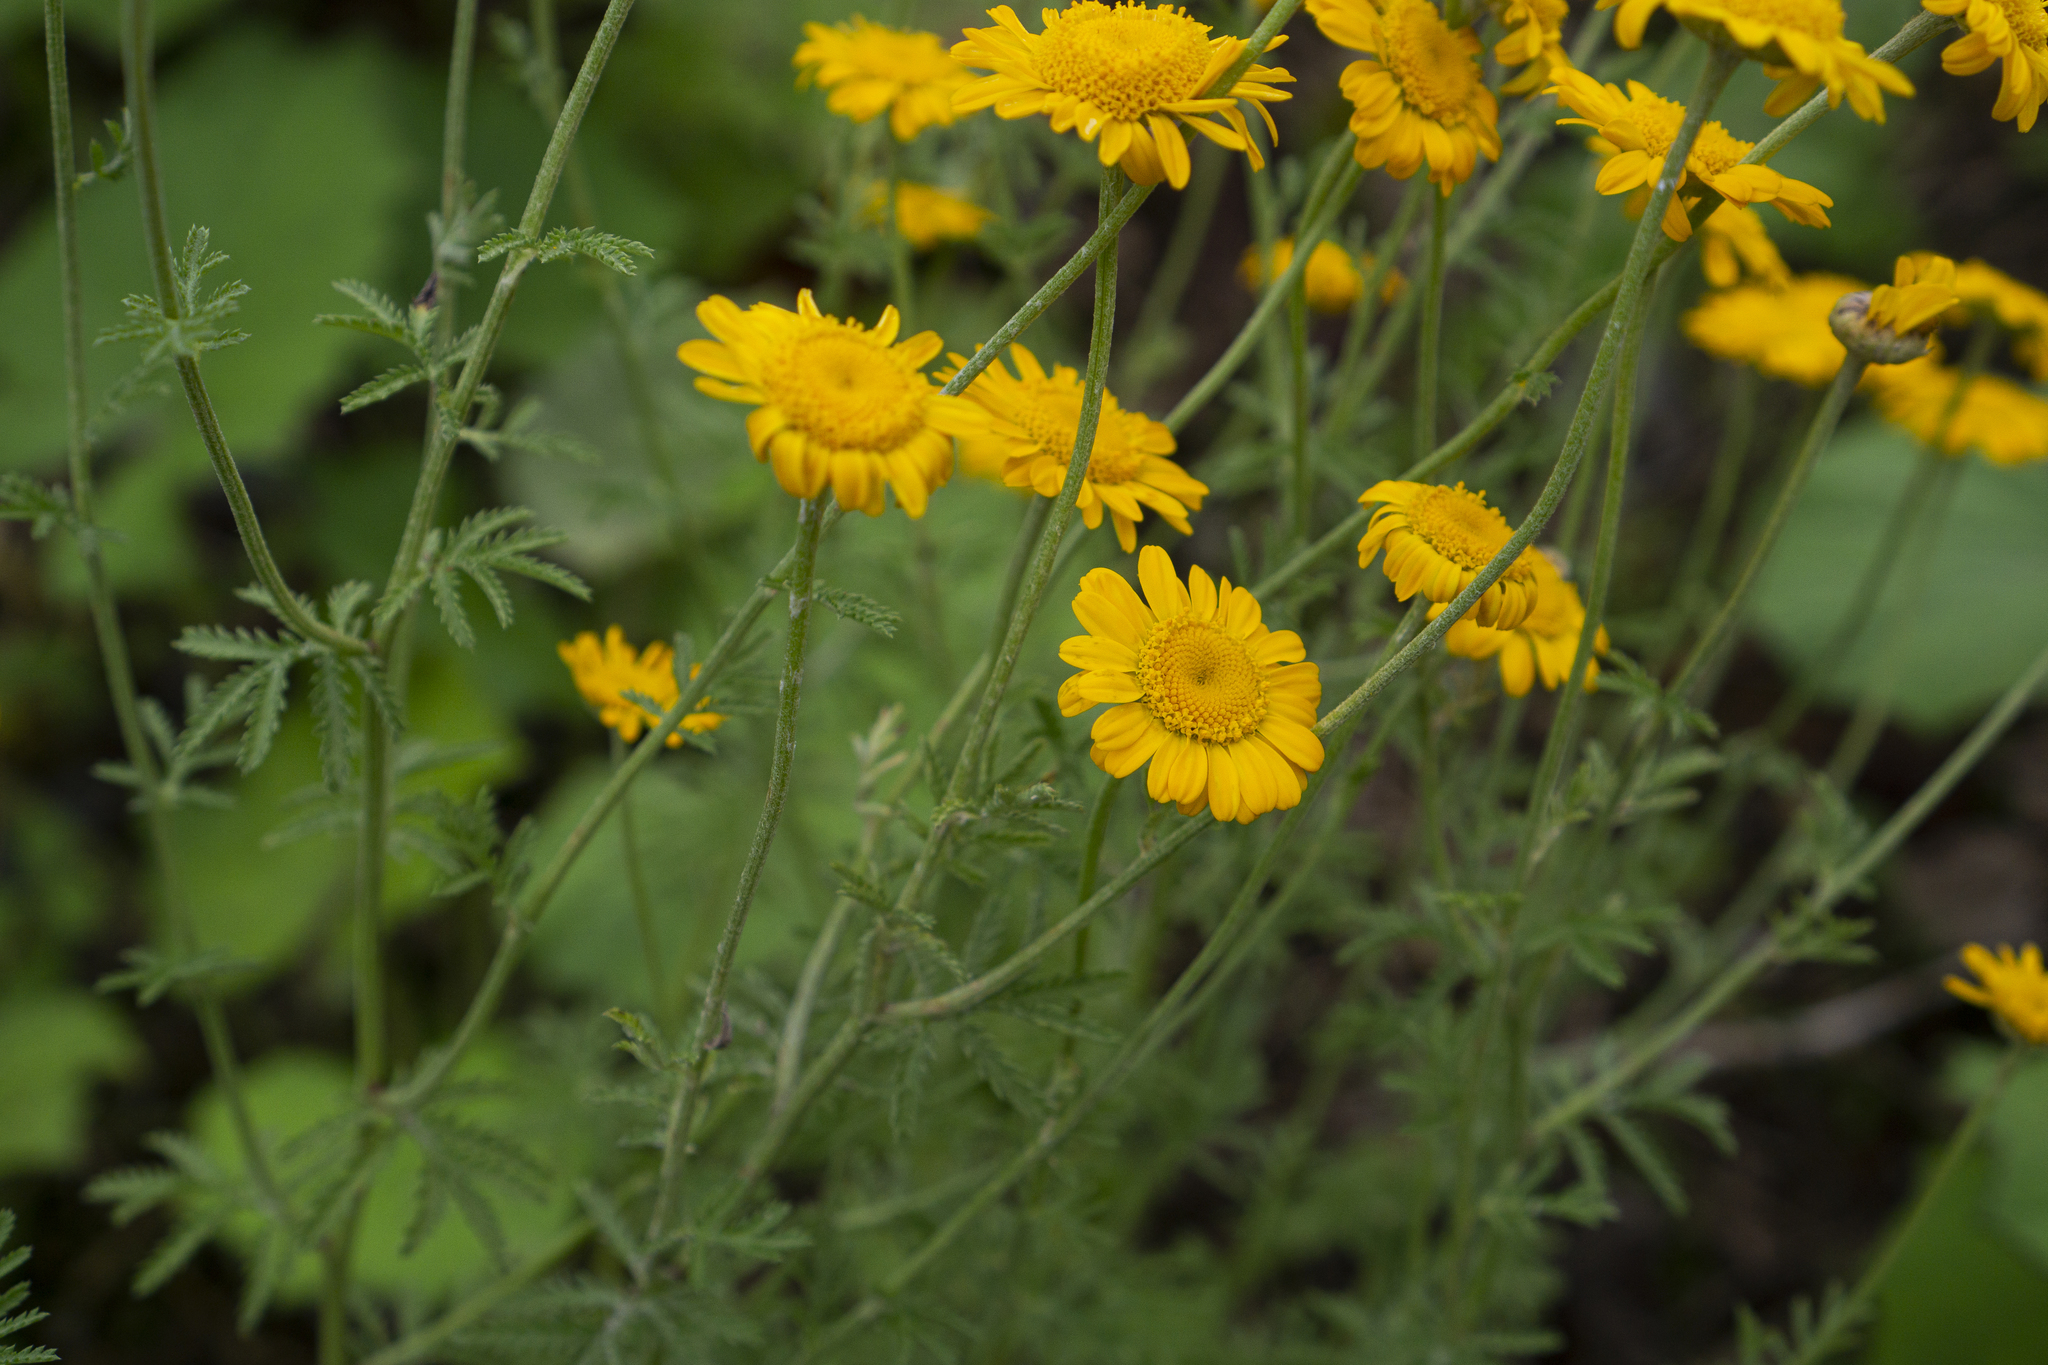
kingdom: Plantae
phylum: Tracheophyta
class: Magnoliopsida
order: Asterales
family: Asteraceae
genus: Cota
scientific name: Cota tinctoria
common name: Golden chamomile
